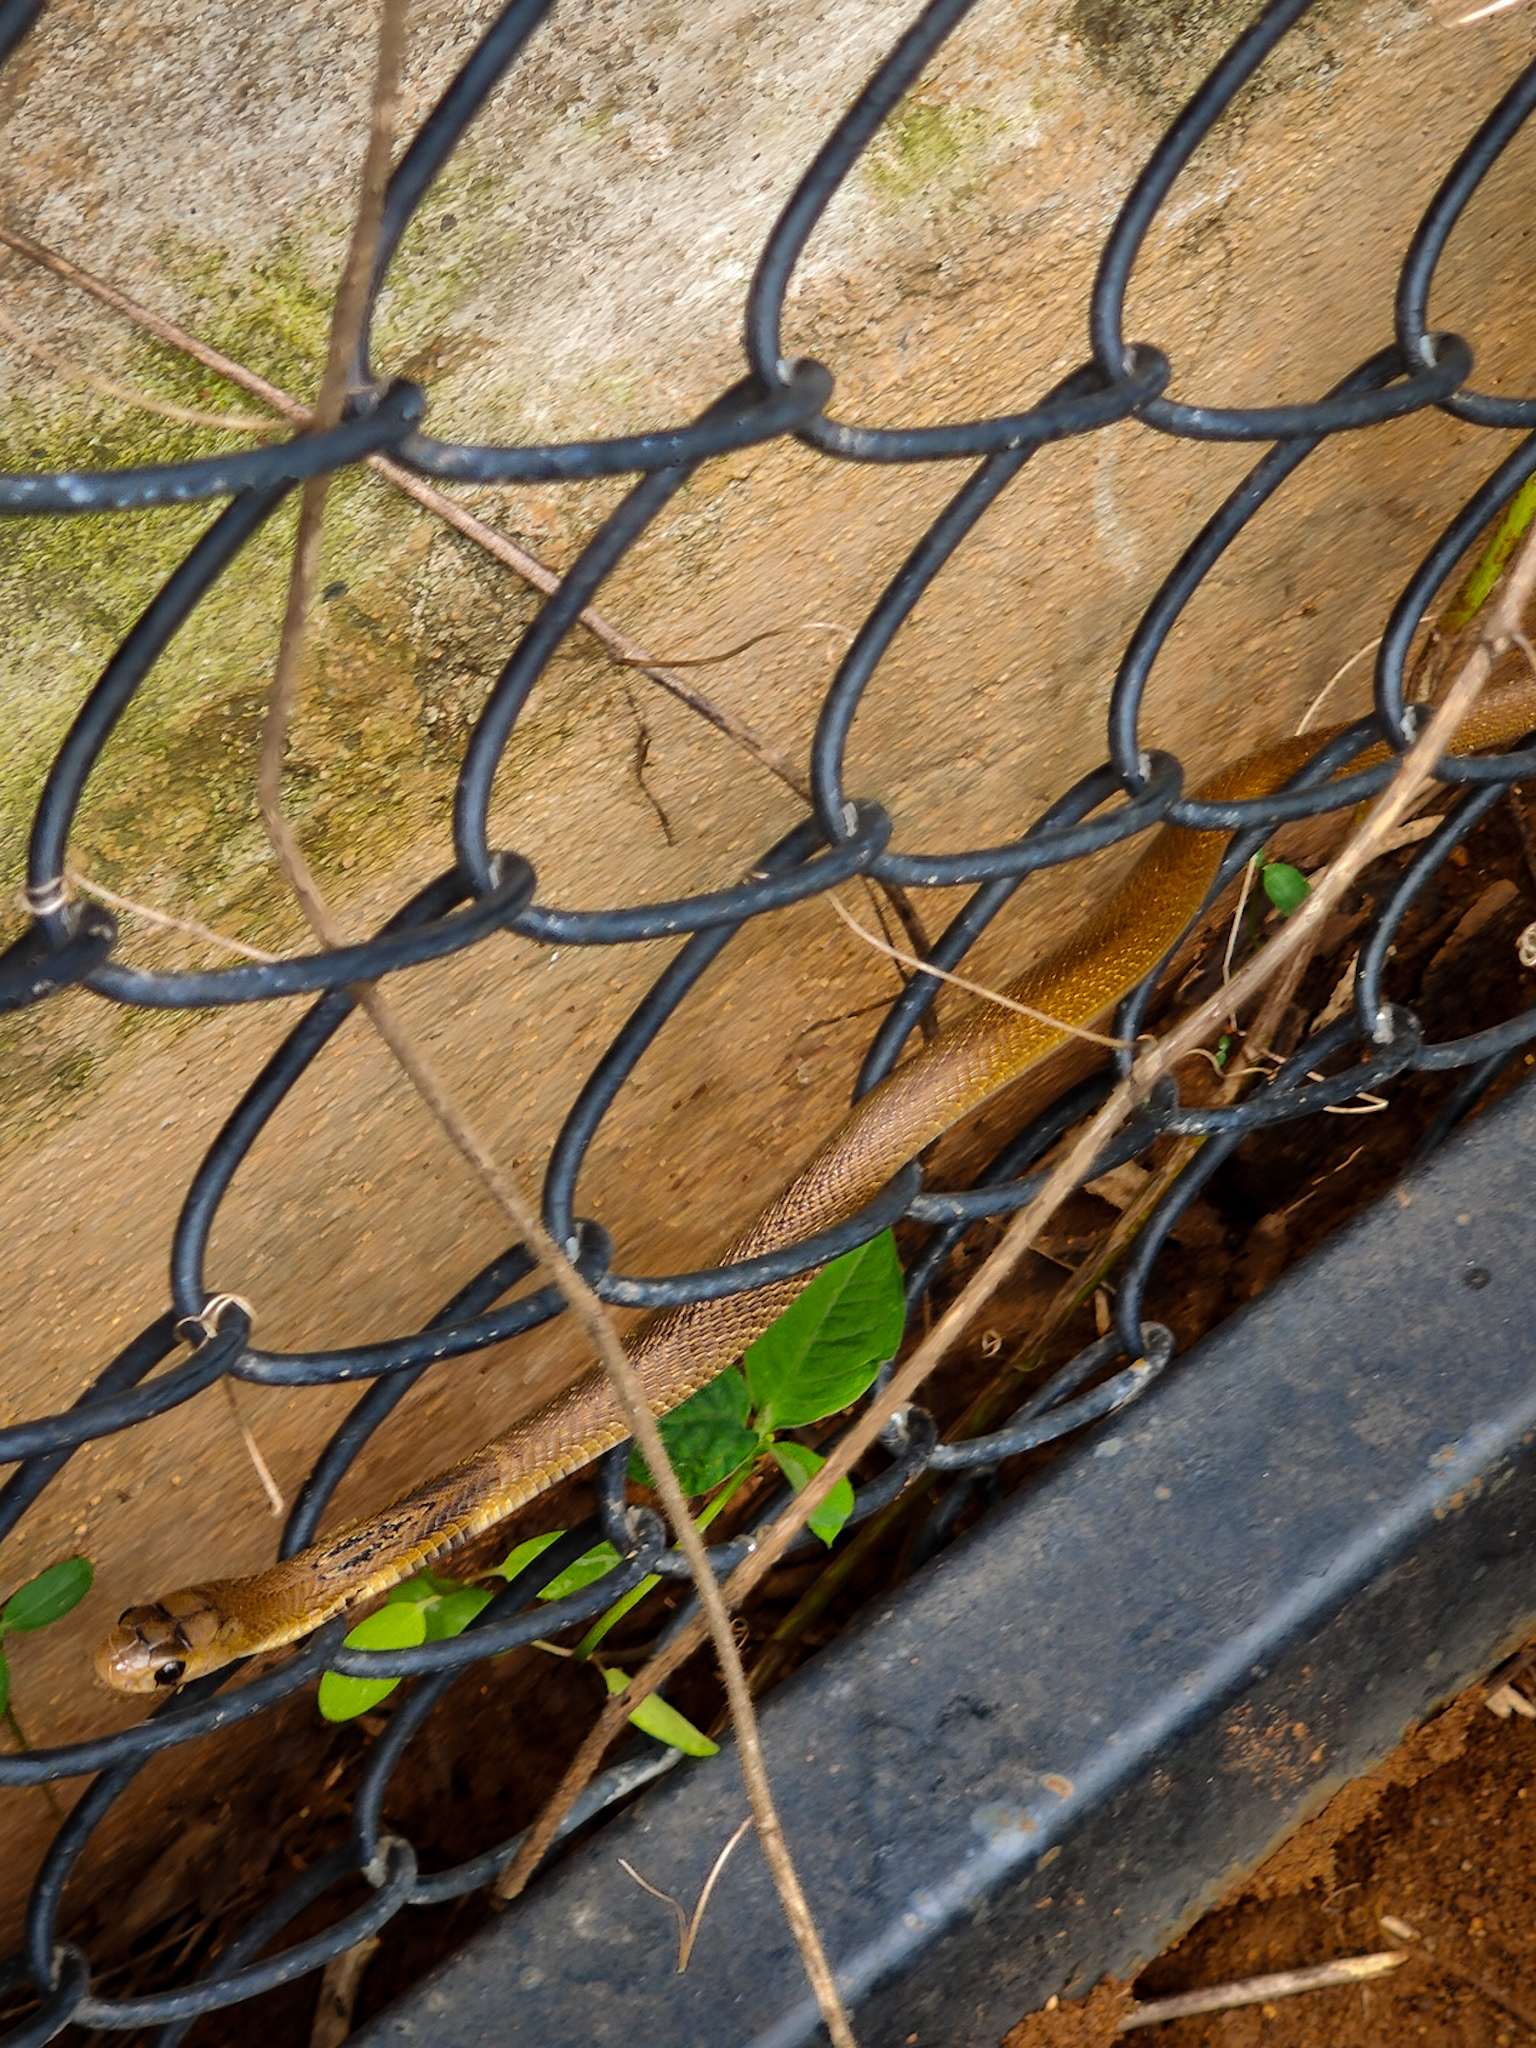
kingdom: Animalia
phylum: Chordata
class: Squamata
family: Elapidae
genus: Naja
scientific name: Naja naja
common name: Indian cobra
